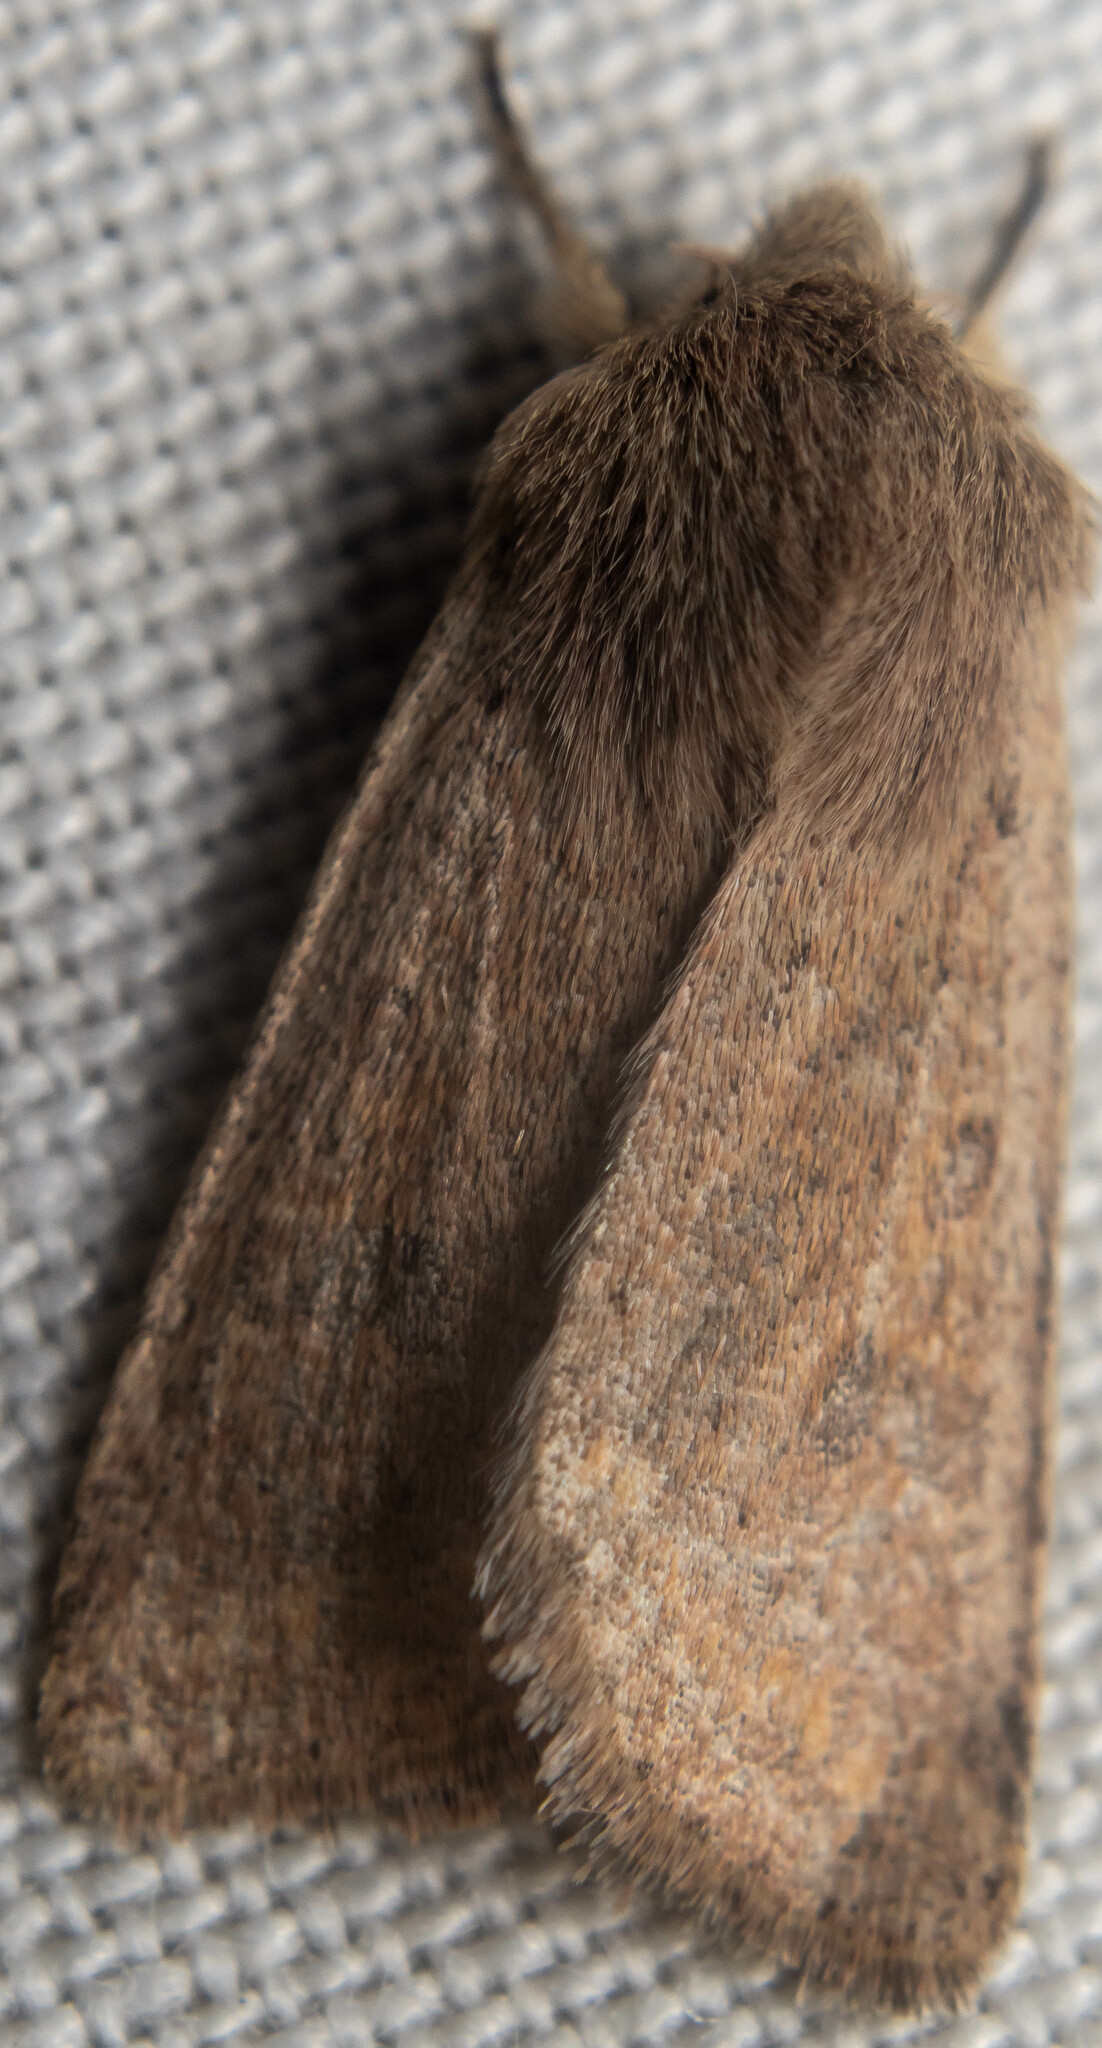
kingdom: Animalia
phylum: Arthropoda
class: Insecta
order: Lepidoptera
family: Noctuidae
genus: Orthosia
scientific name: Orthosia cruda
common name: Small quaker
